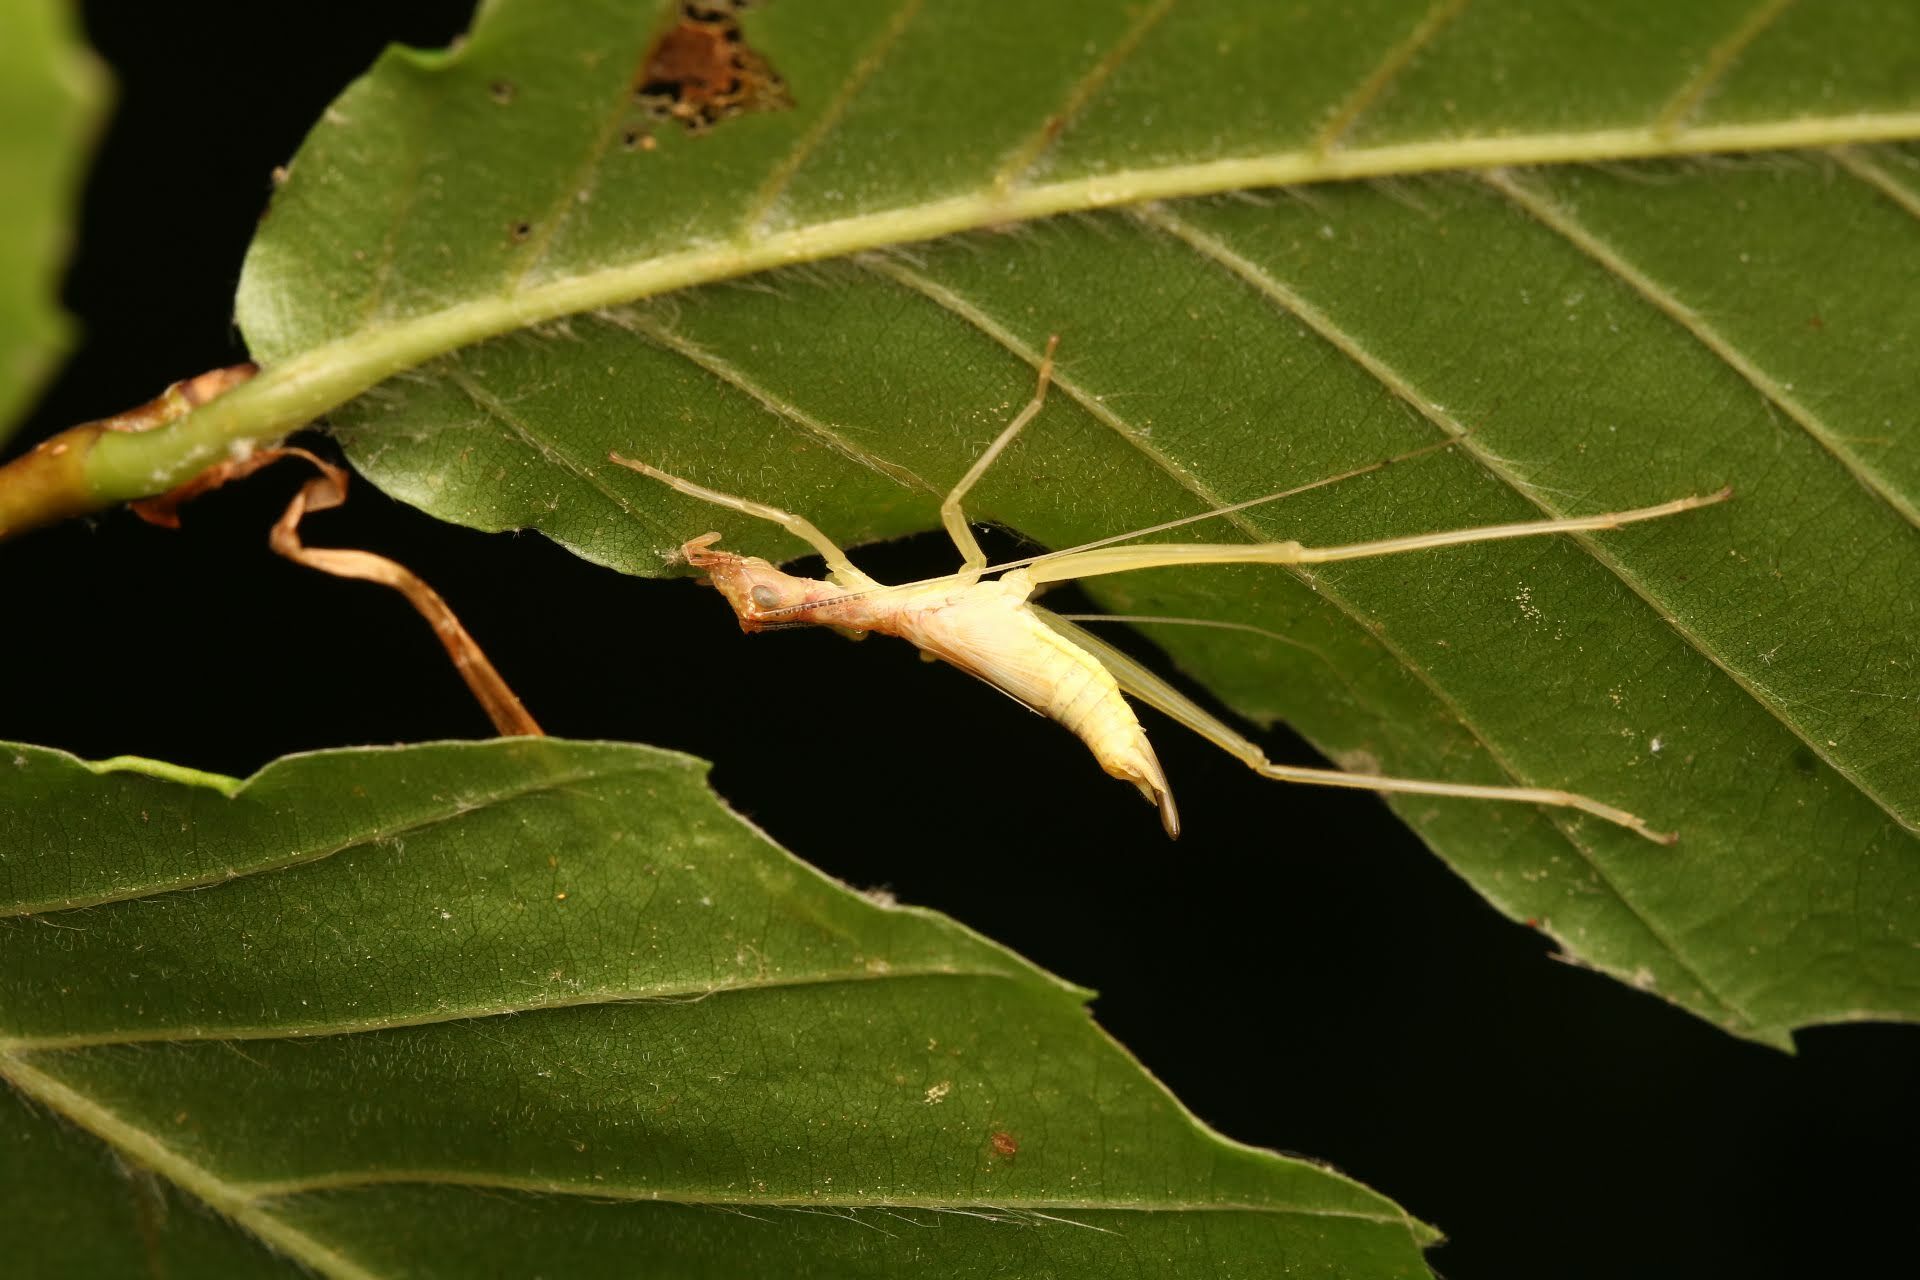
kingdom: Animalia
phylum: Arthropoda
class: Insecta
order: Orthoptera
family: Gryllidae
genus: Neoxabea
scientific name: Neoxabea bipunctata
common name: Two-spotted tree cricket
